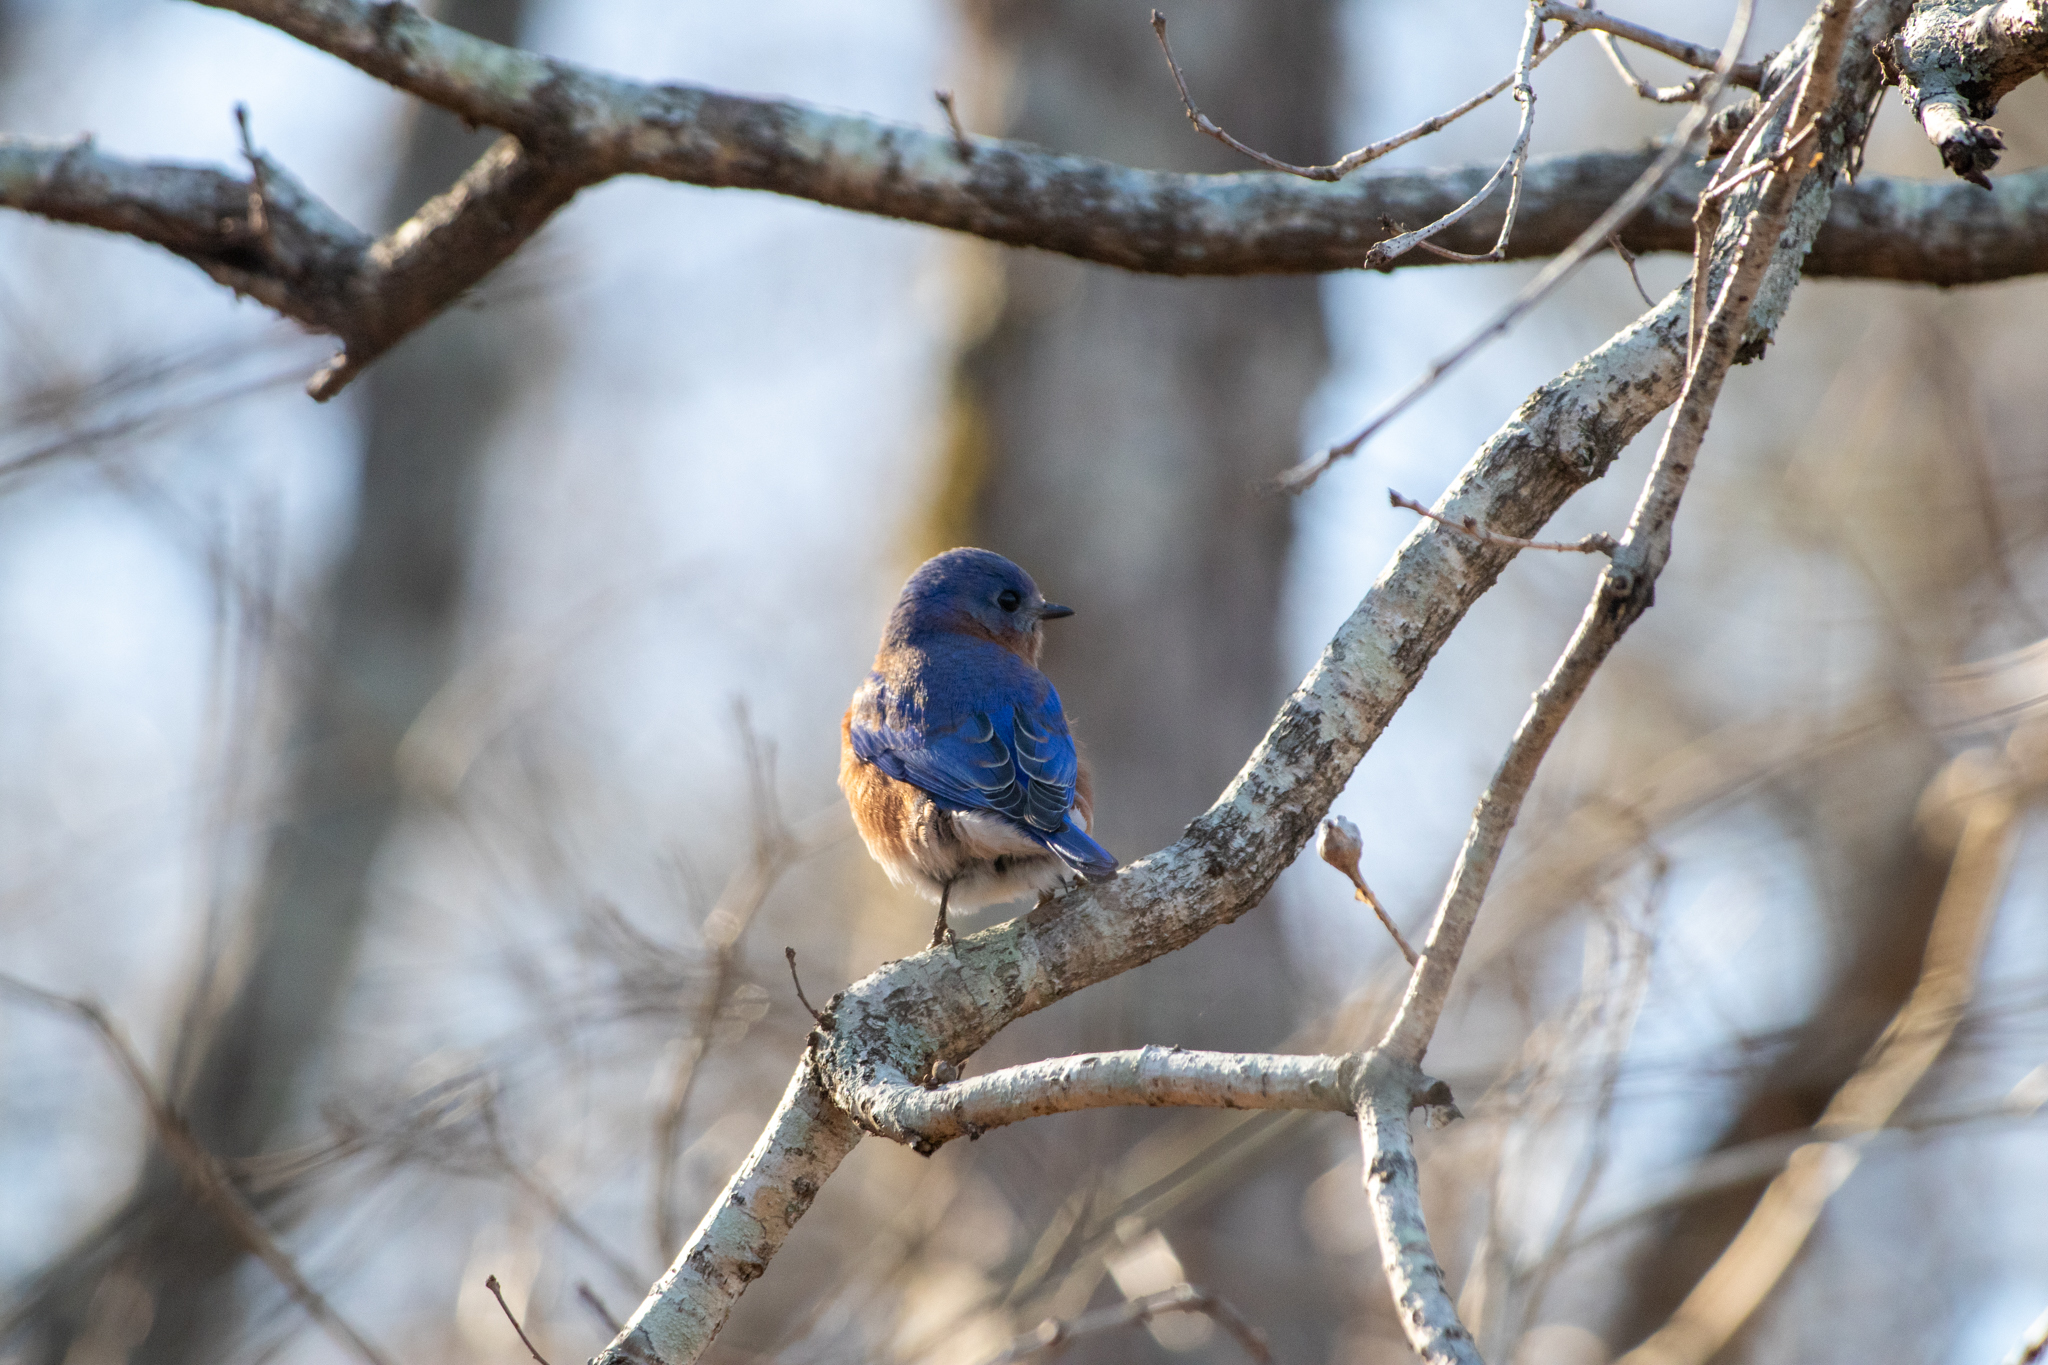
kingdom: Animalia
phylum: Chordata
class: Aves
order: Passeriformes
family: Turdidae
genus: Sialia
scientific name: Sialia sialis
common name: Eastern bluebird
